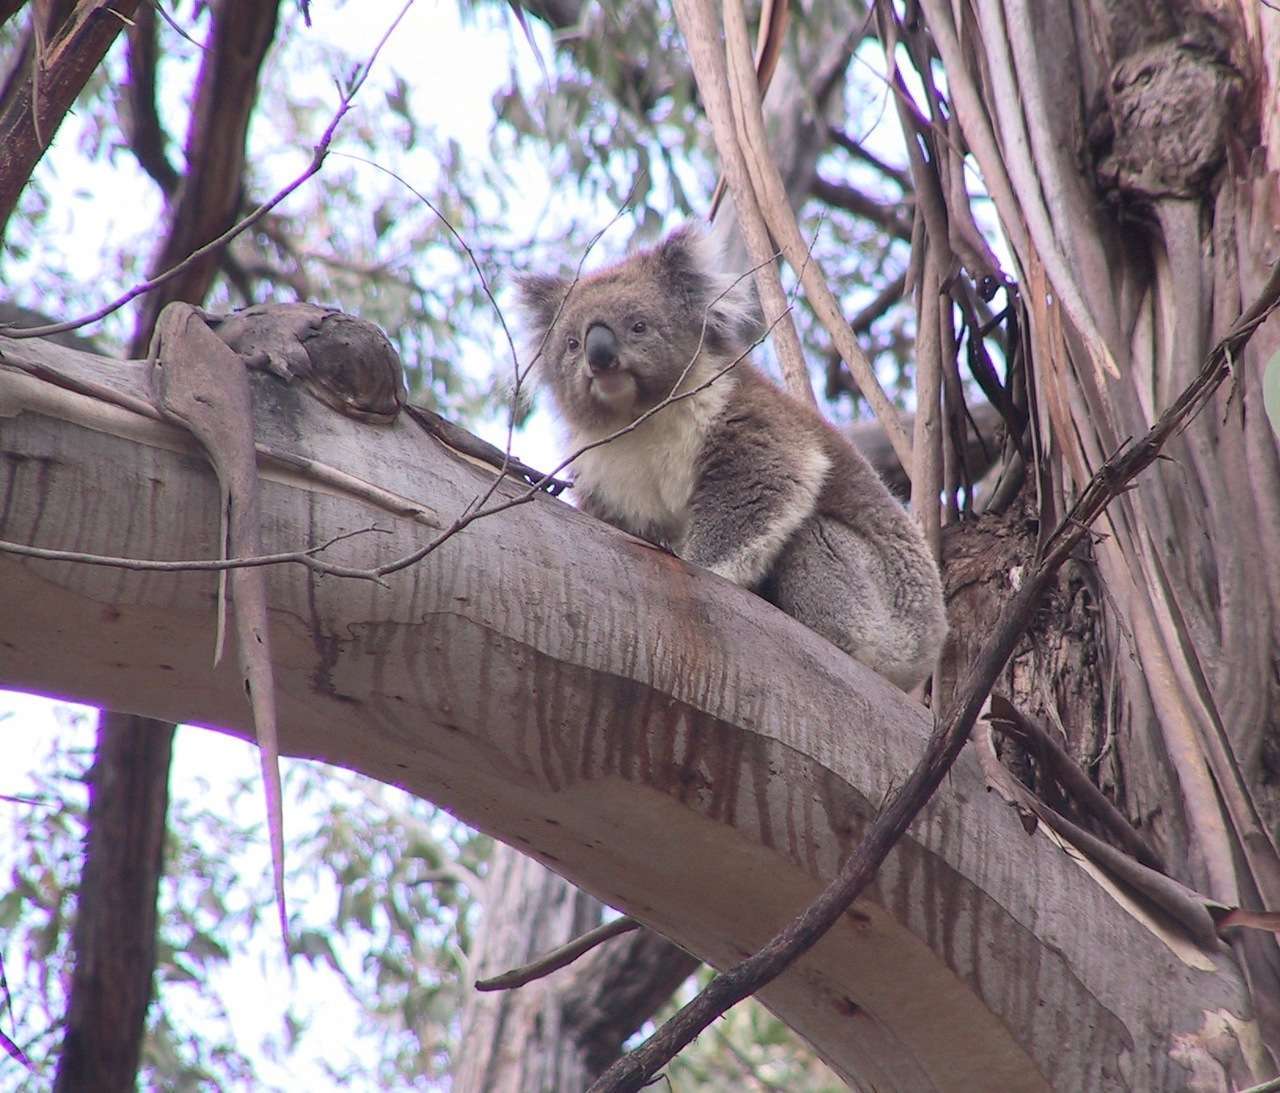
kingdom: Animalia
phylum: Chordata
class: Mammalia
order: Diprotodontia
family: Phascolarctidae
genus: Phascolarctos
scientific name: Phascolarctos cinereus
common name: Koala
